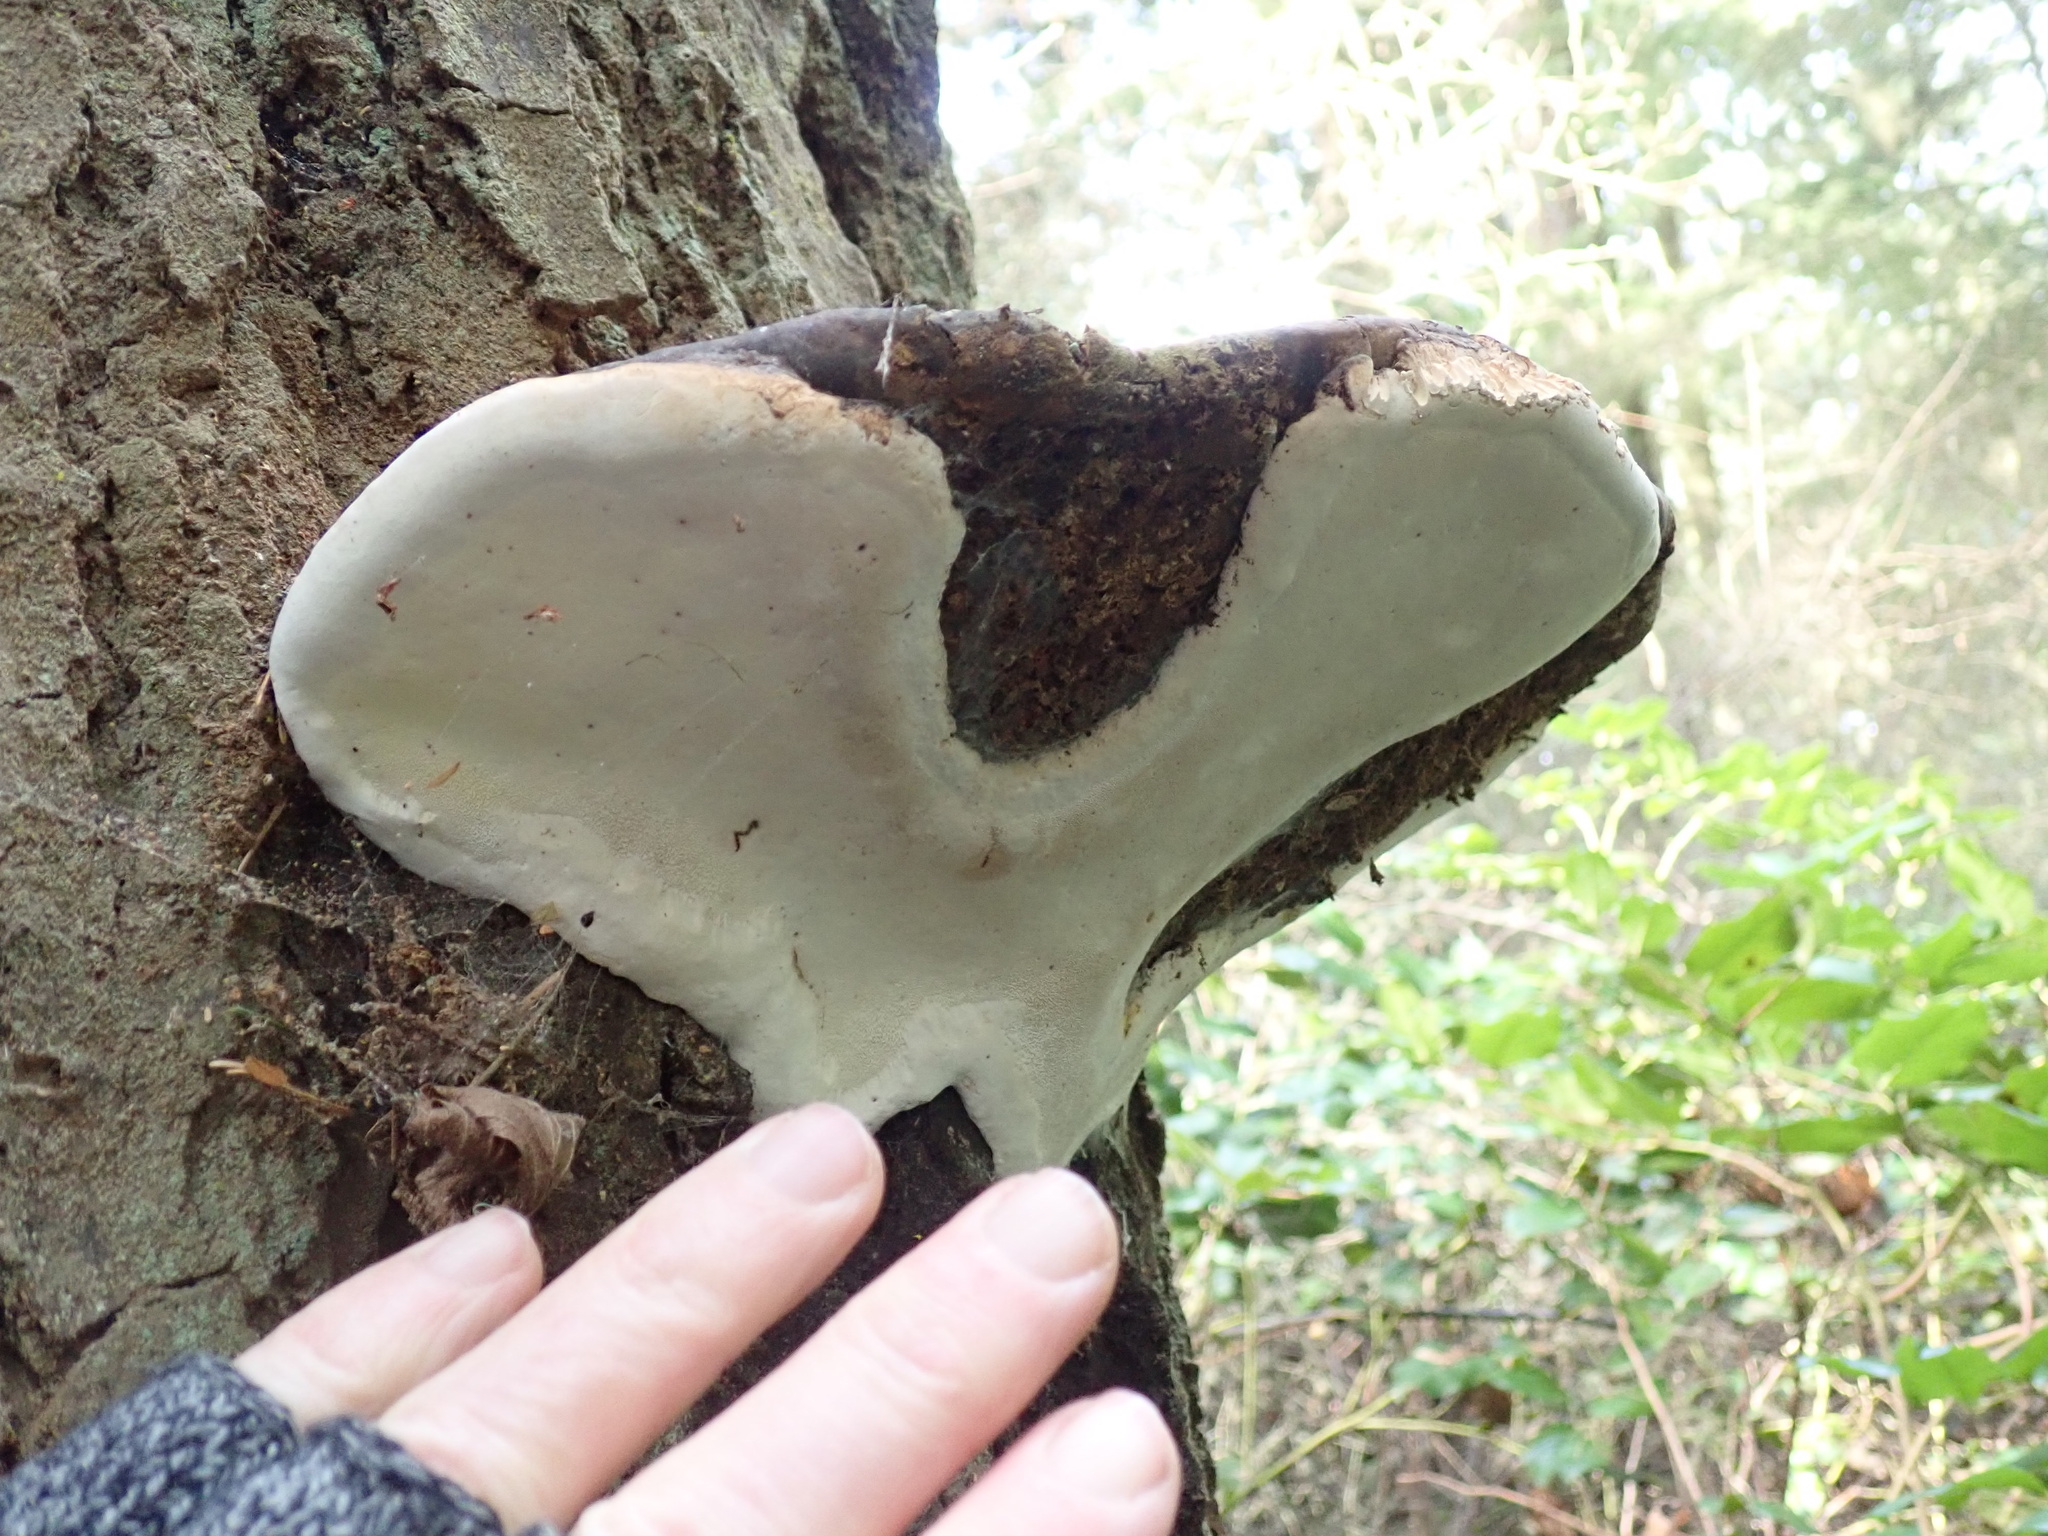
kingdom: Fungi
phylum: Basidiomycota
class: Agaricomycetes
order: Polyporales
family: Fomitopsidaceae
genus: Fomitopsis
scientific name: Fomitopsis ochracea
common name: American brown fomitopsis
